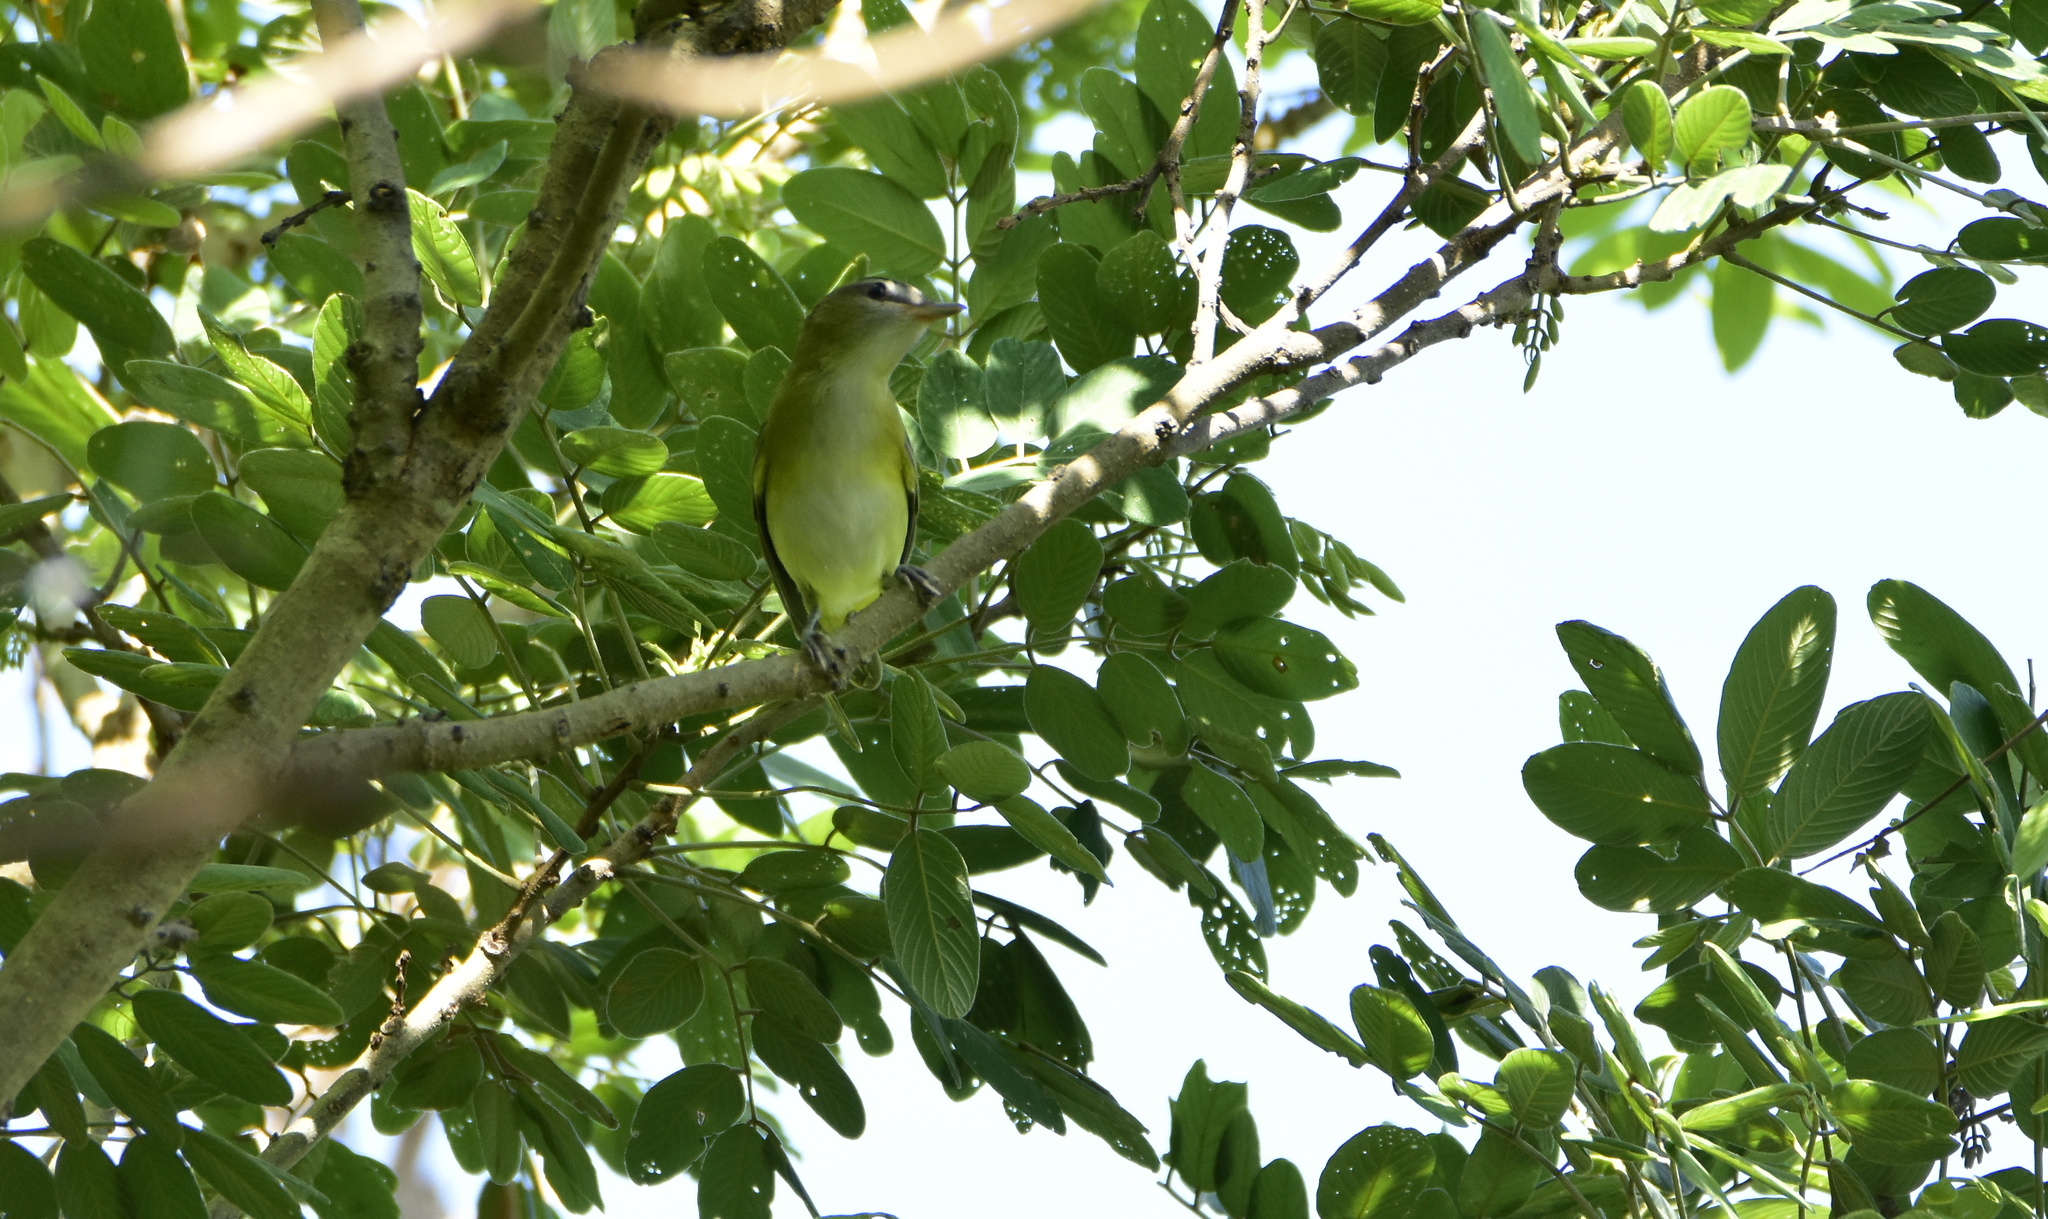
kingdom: Animalia
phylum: Chordata
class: Aves
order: Passeriformes
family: Vireonidae
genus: Vireo
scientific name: Vireo bellii
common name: Bell's vireo
